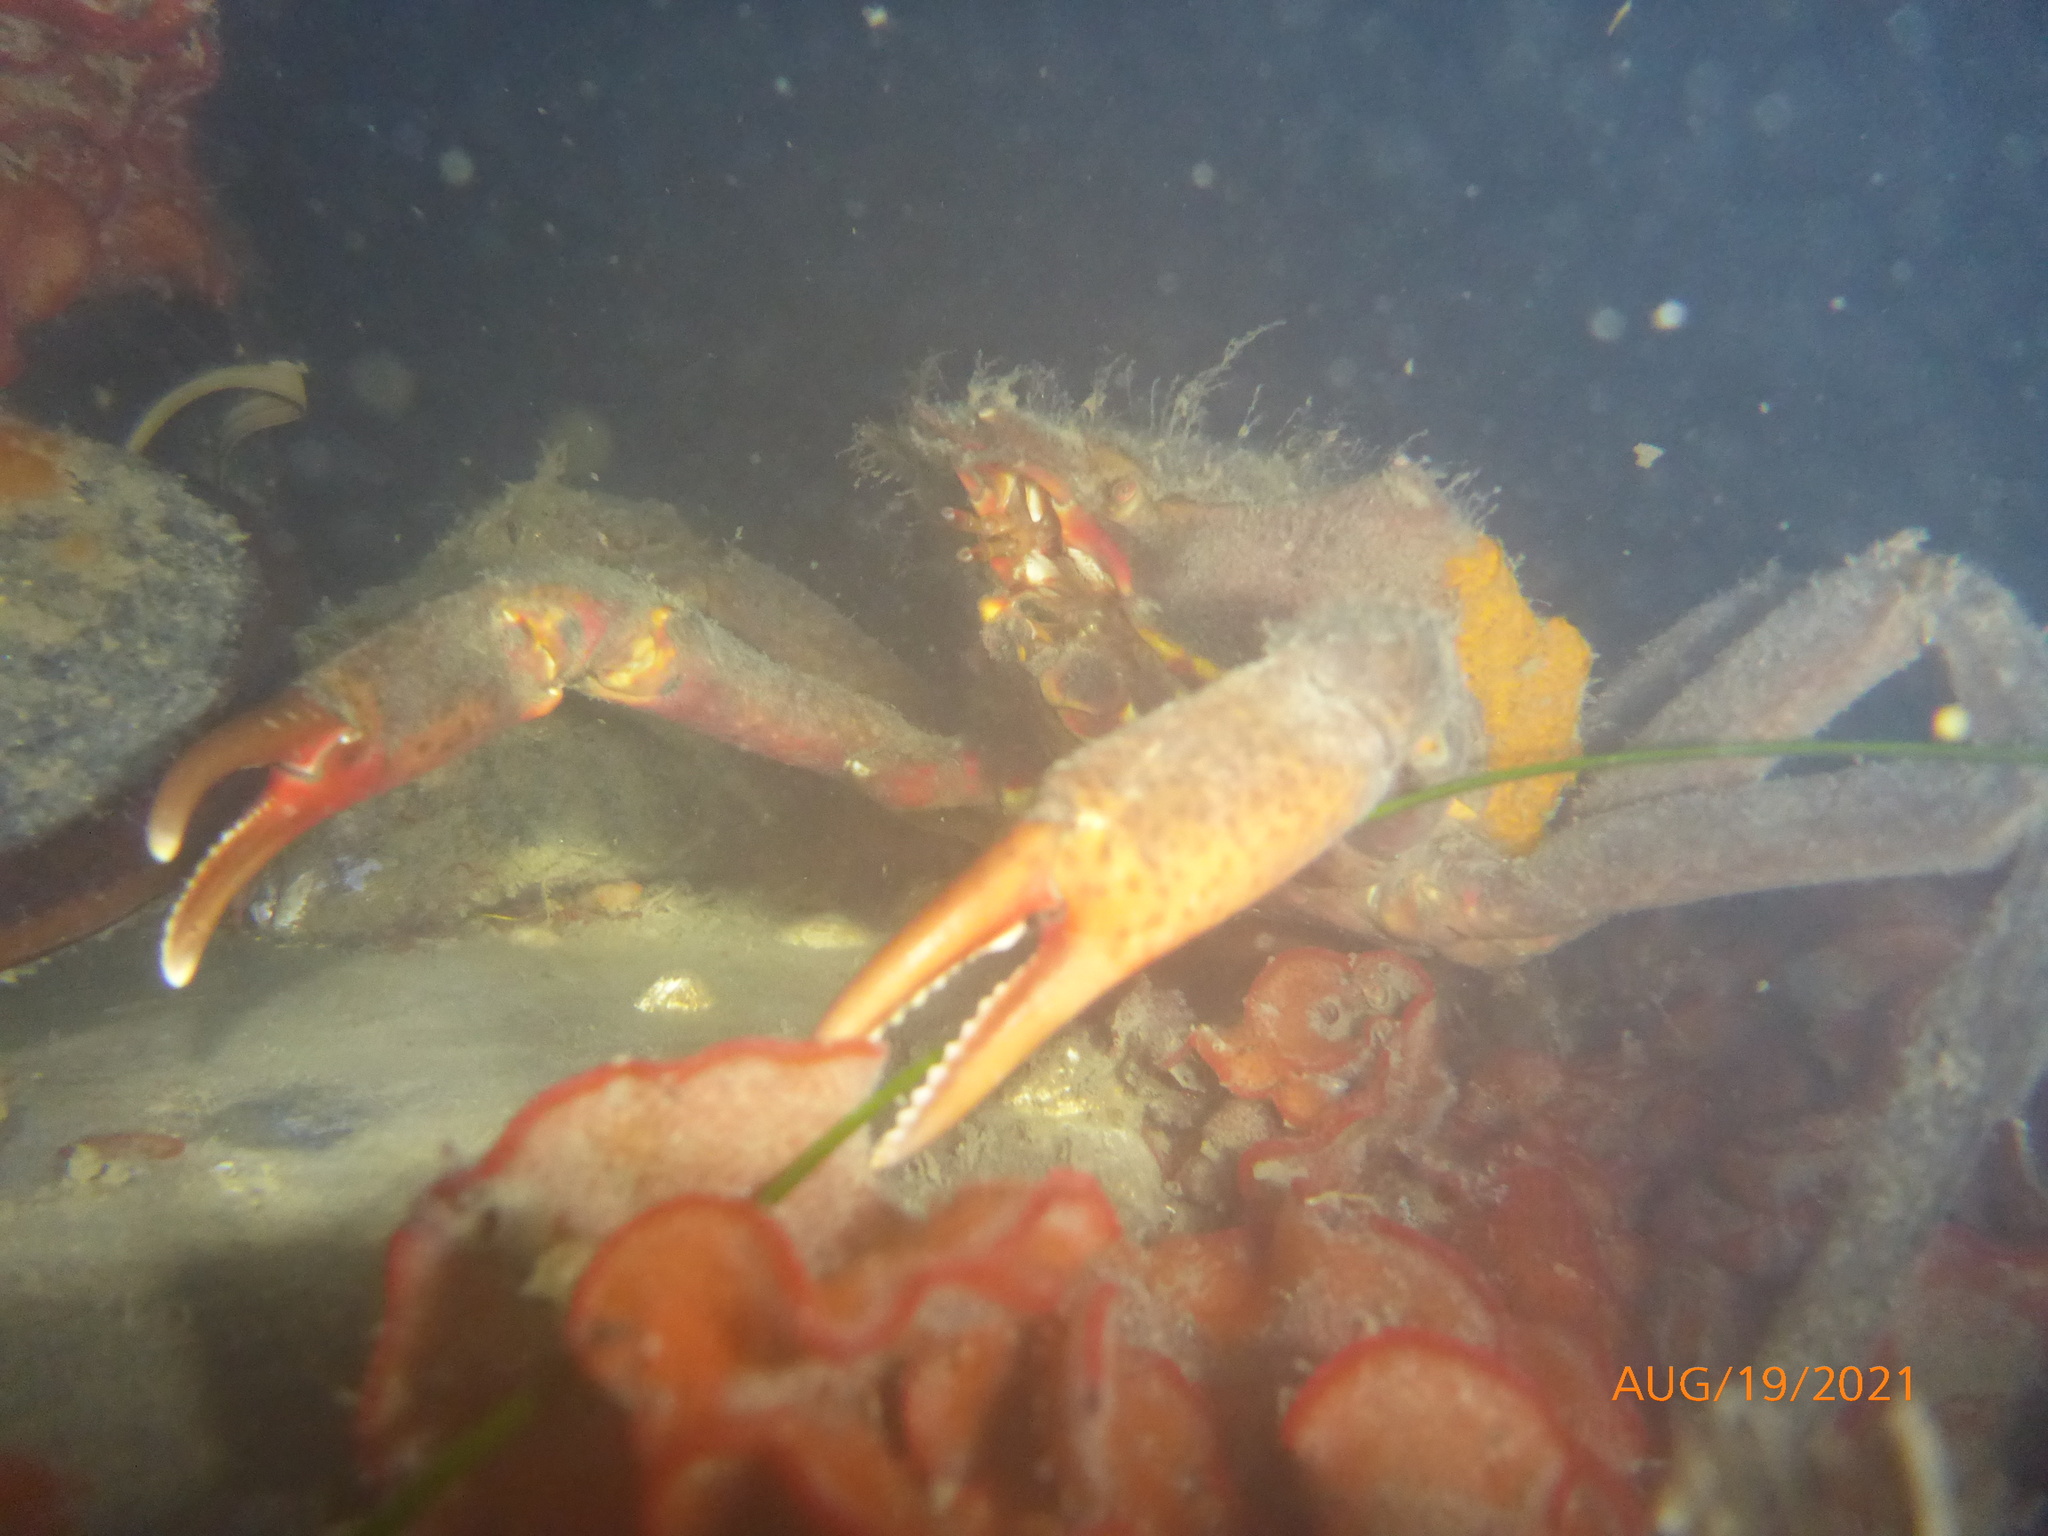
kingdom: Animalia
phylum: Arthropoda
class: Malacostraca
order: Decapoda
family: Epialtidae
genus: Pugettia
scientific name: Pugettia producta
